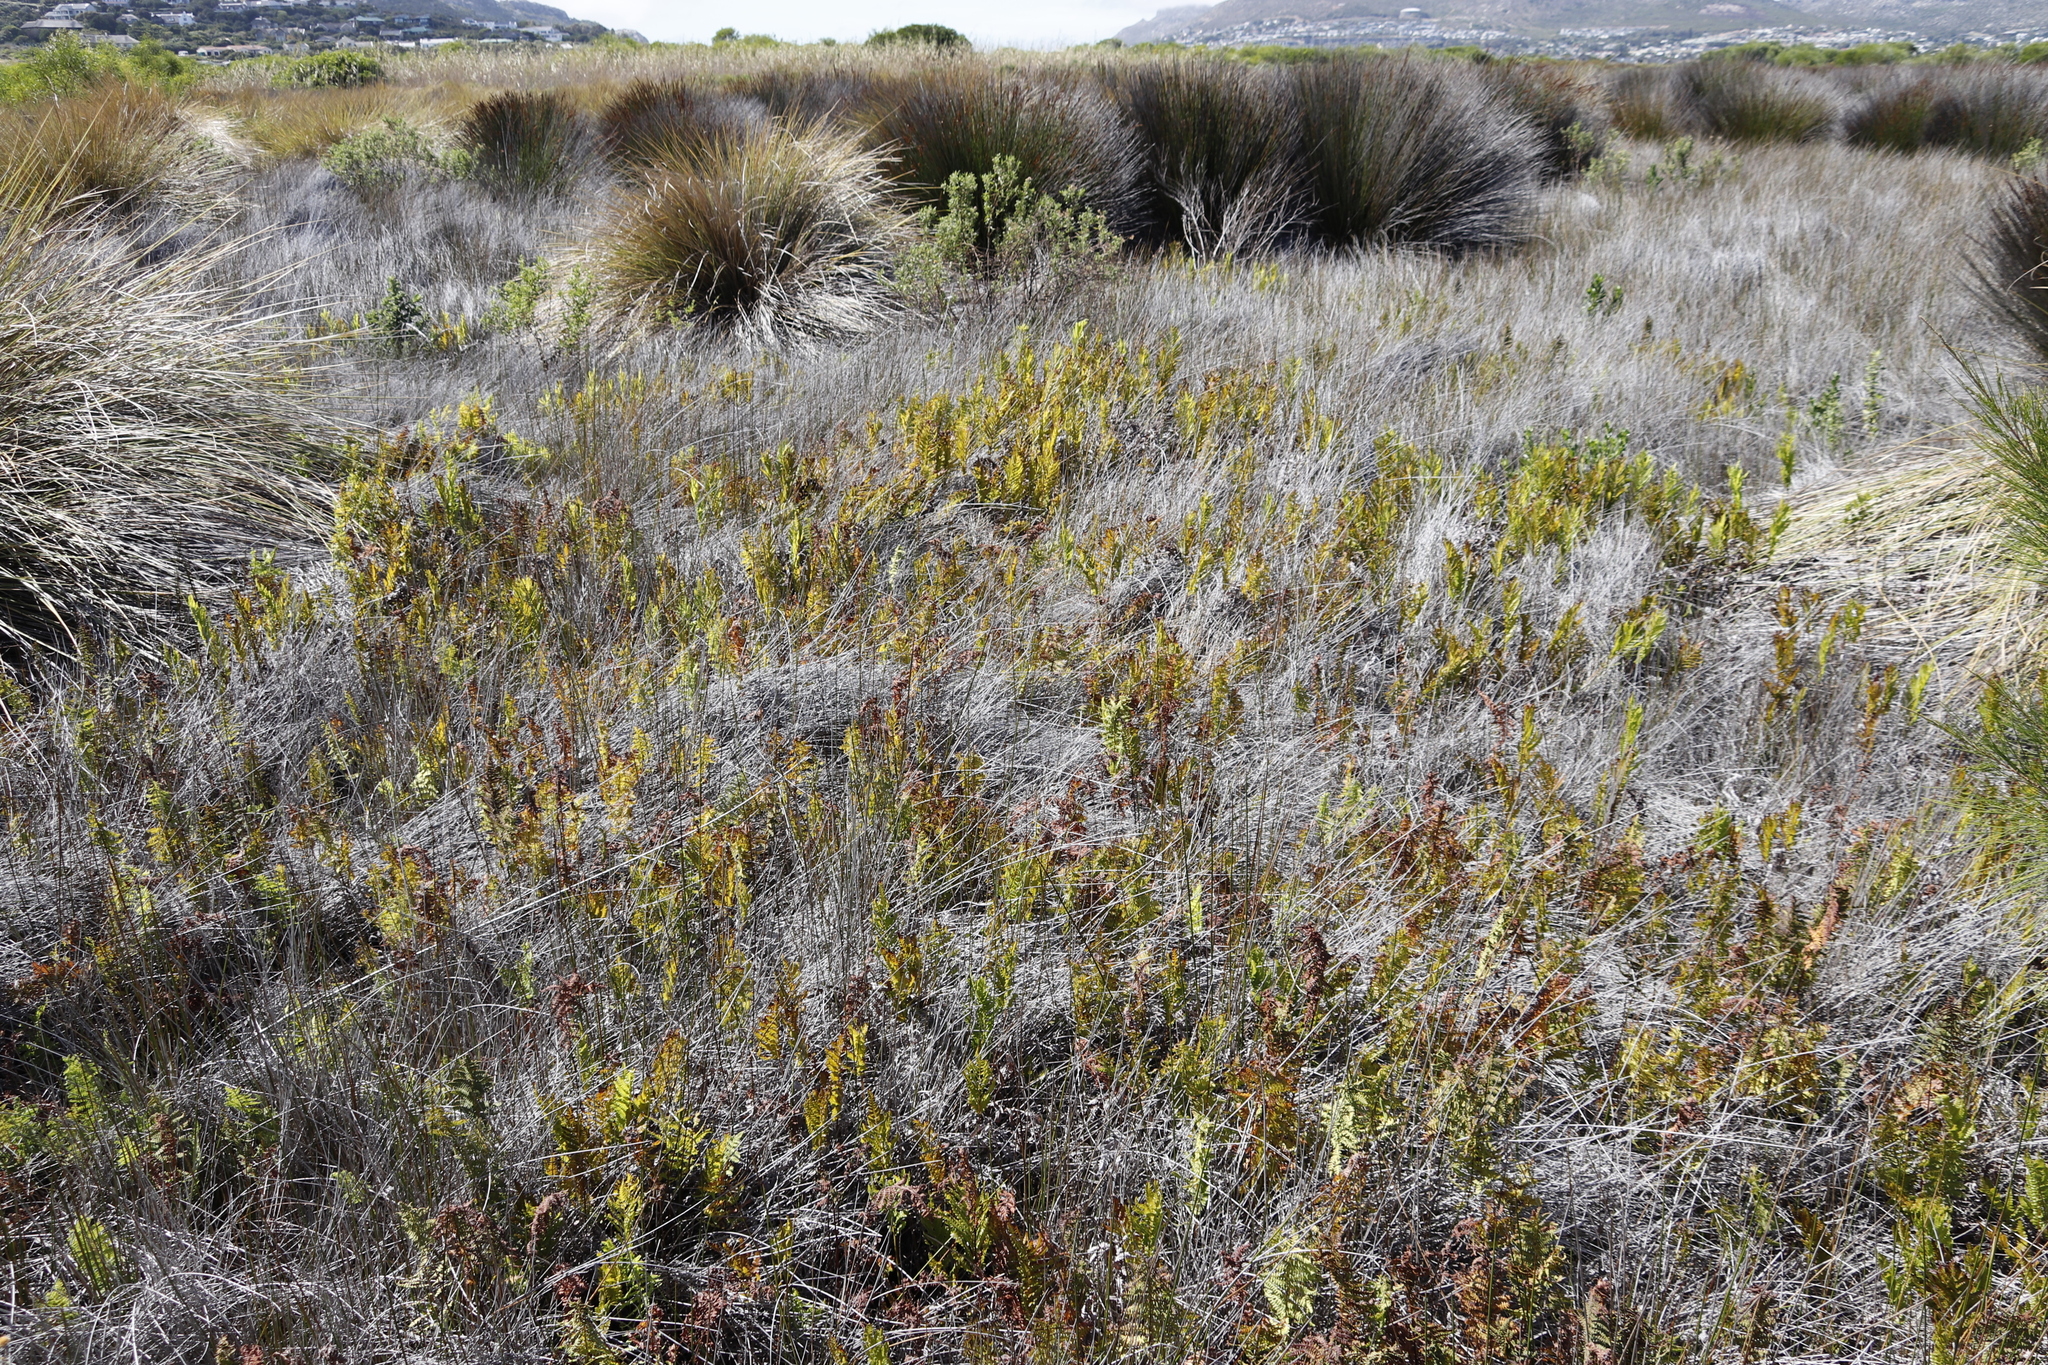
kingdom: Plantae
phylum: Tracheophyta
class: Polypodiopsida
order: Polypodiales
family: Thelypteridaceae
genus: Thelypteris
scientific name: Thelypteris confluens
